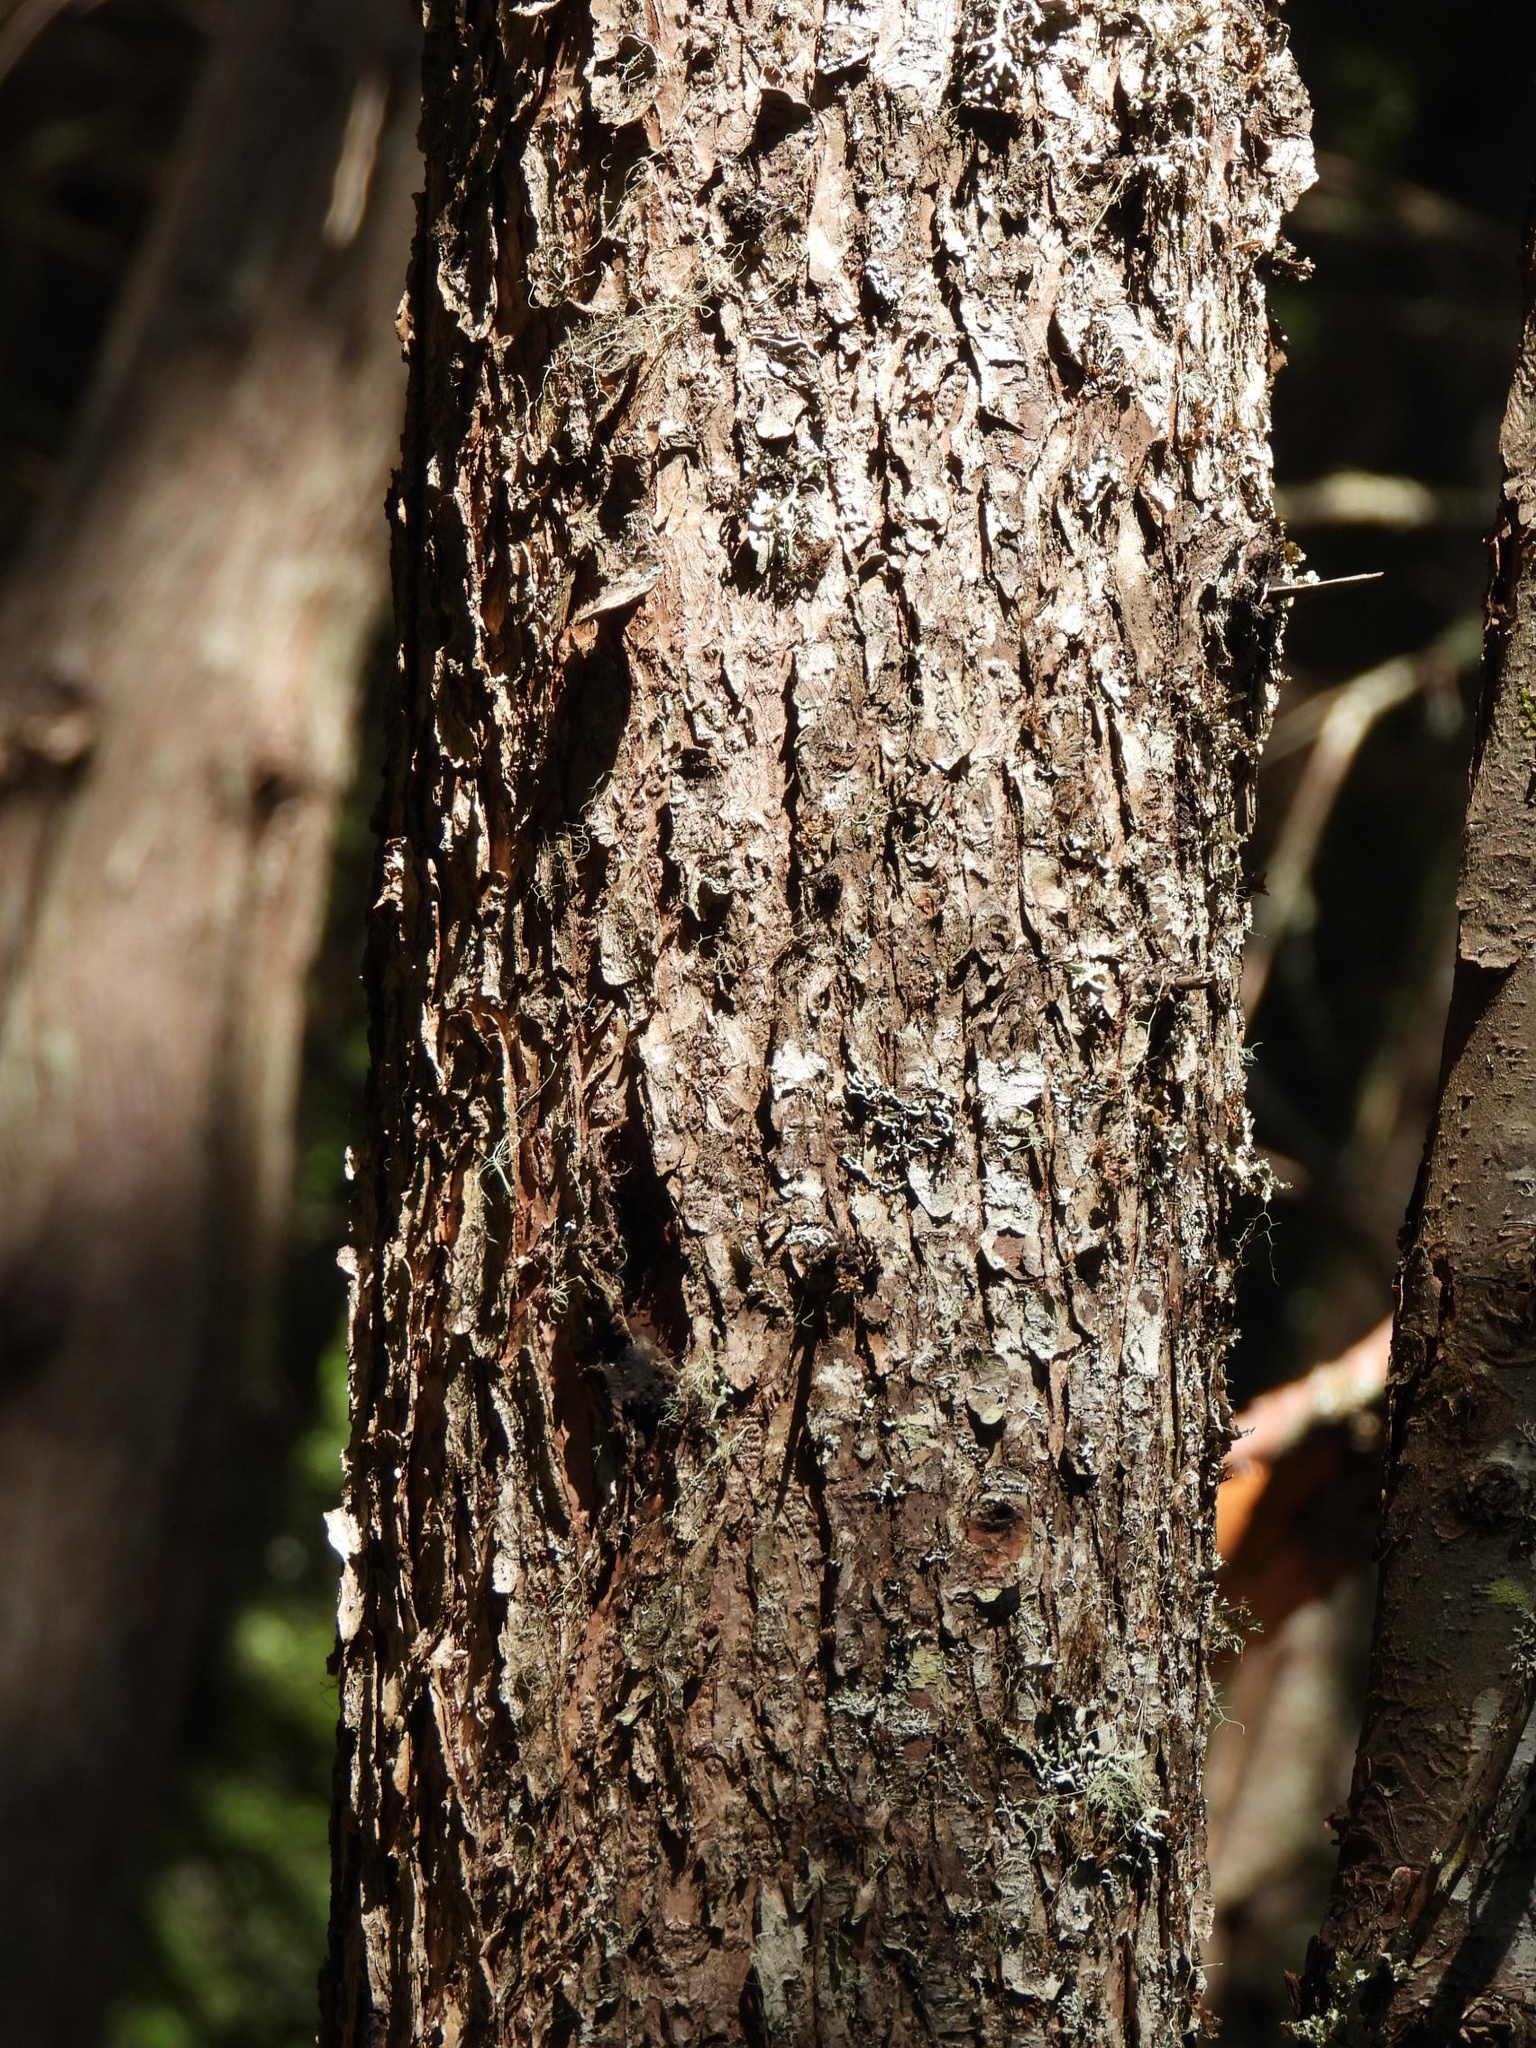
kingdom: Plantae
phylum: Tracheophyta
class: Pinopsida
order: Pinales
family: Pinaceae
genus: Tsuga
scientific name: Tsuga heterophylla
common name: Western hemlock
